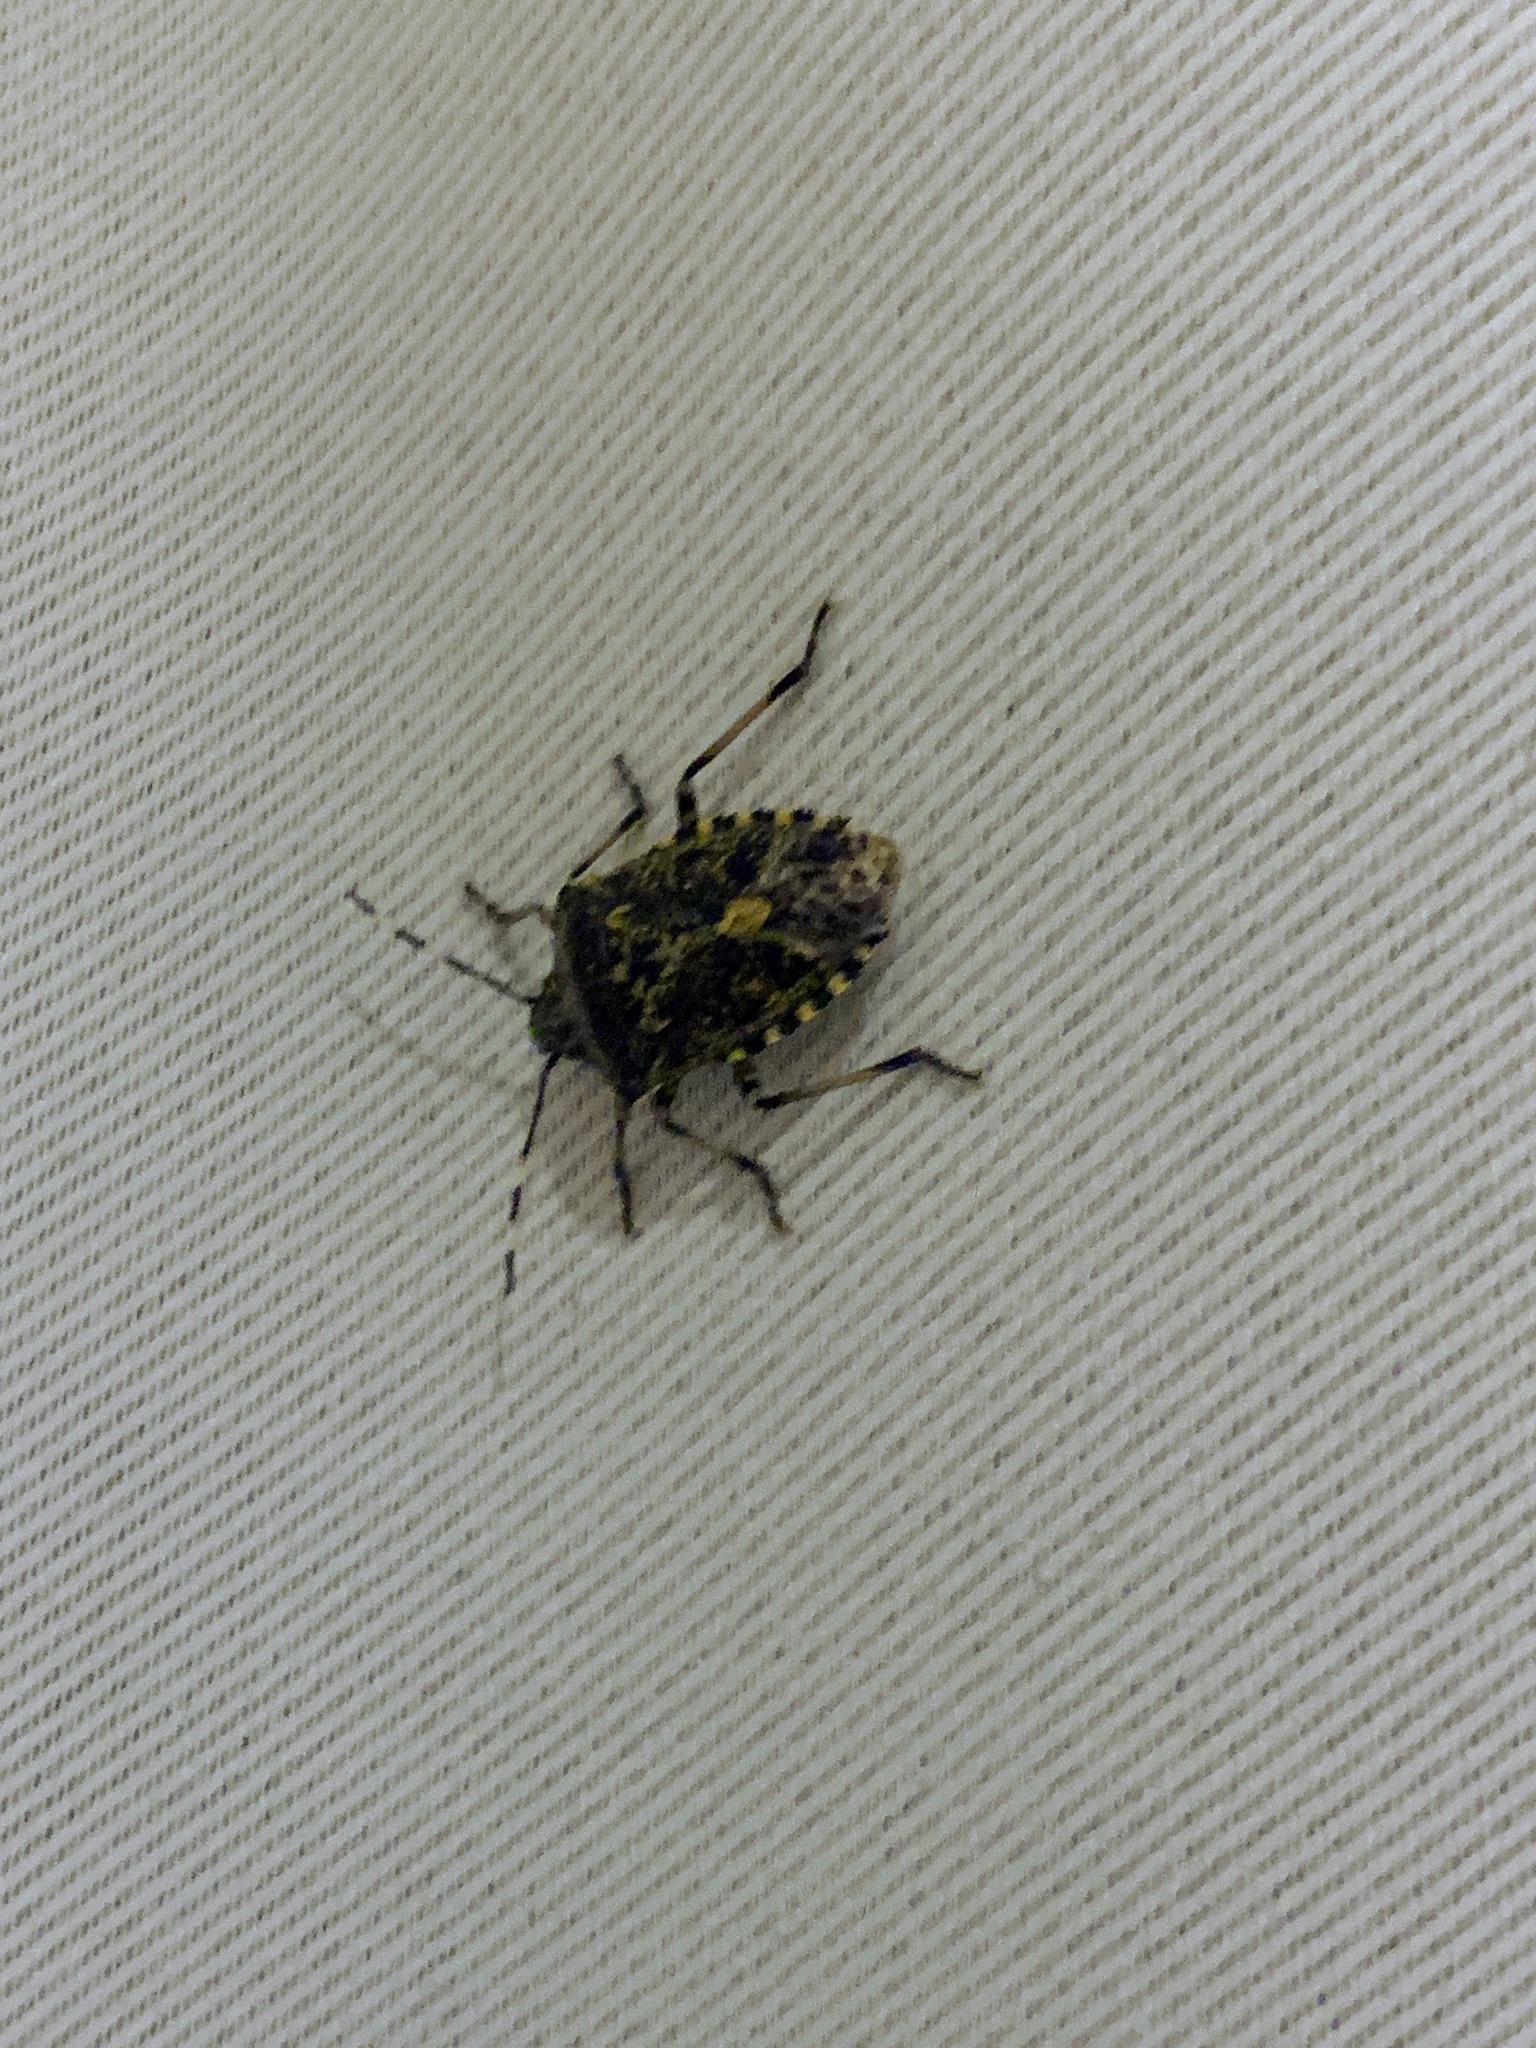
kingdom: Animalia
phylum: Arthropoda
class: Insecta
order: Hemiptera
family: Pentatomidae
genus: Rhaphigaster
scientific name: Rhaphigaster nebulosa
